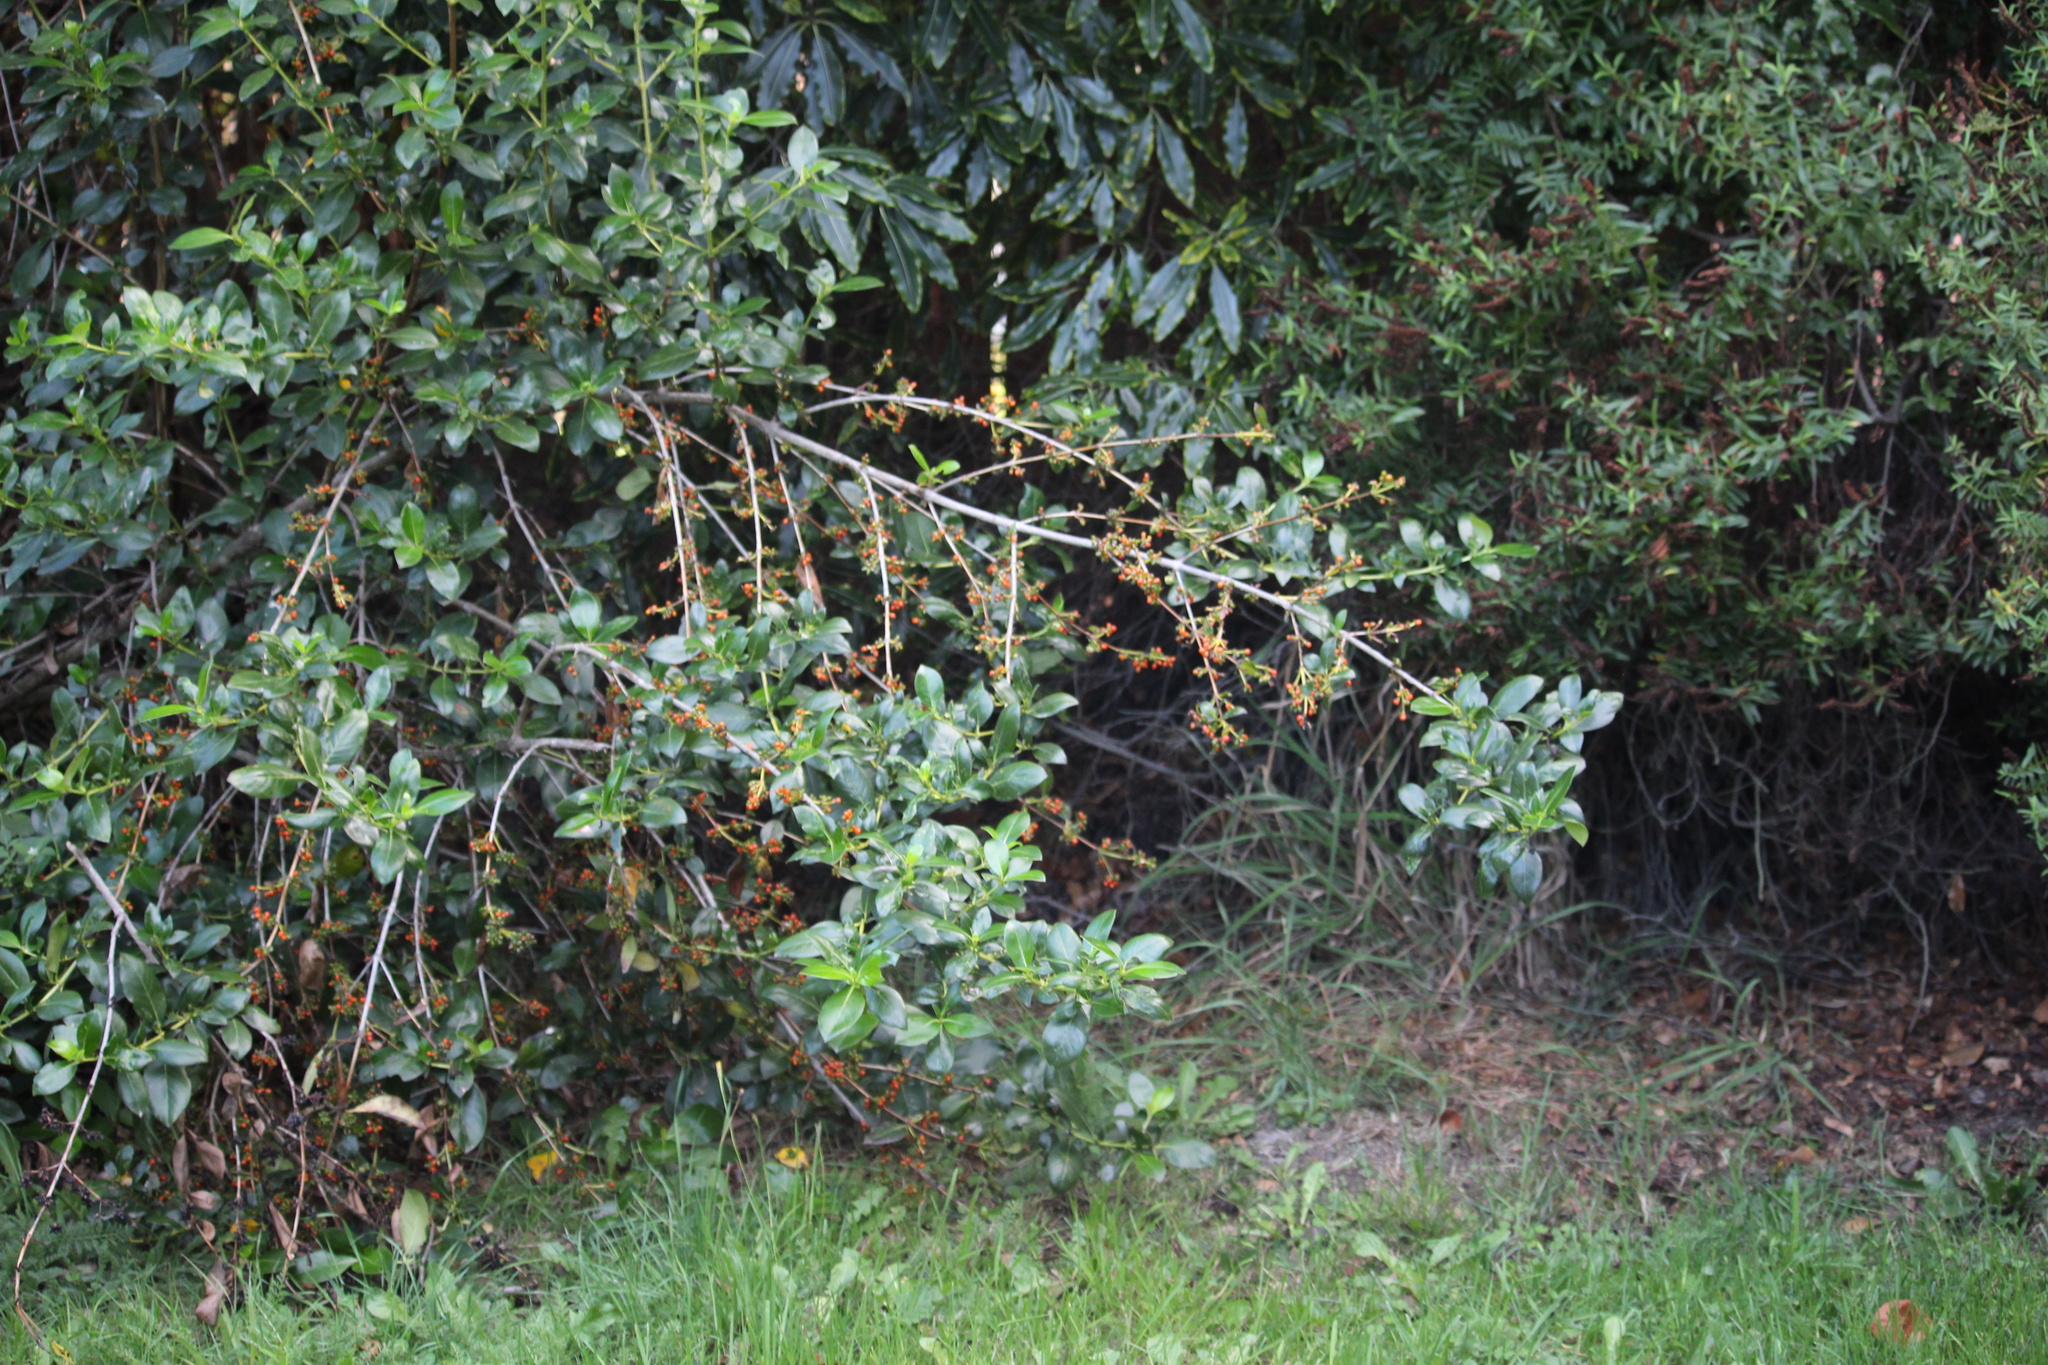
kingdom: Plantae
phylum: Tracheophyta
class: Magnoliopsida
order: Gentianales
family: Rubiaceae
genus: Coprosma
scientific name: Coprosma robusta
